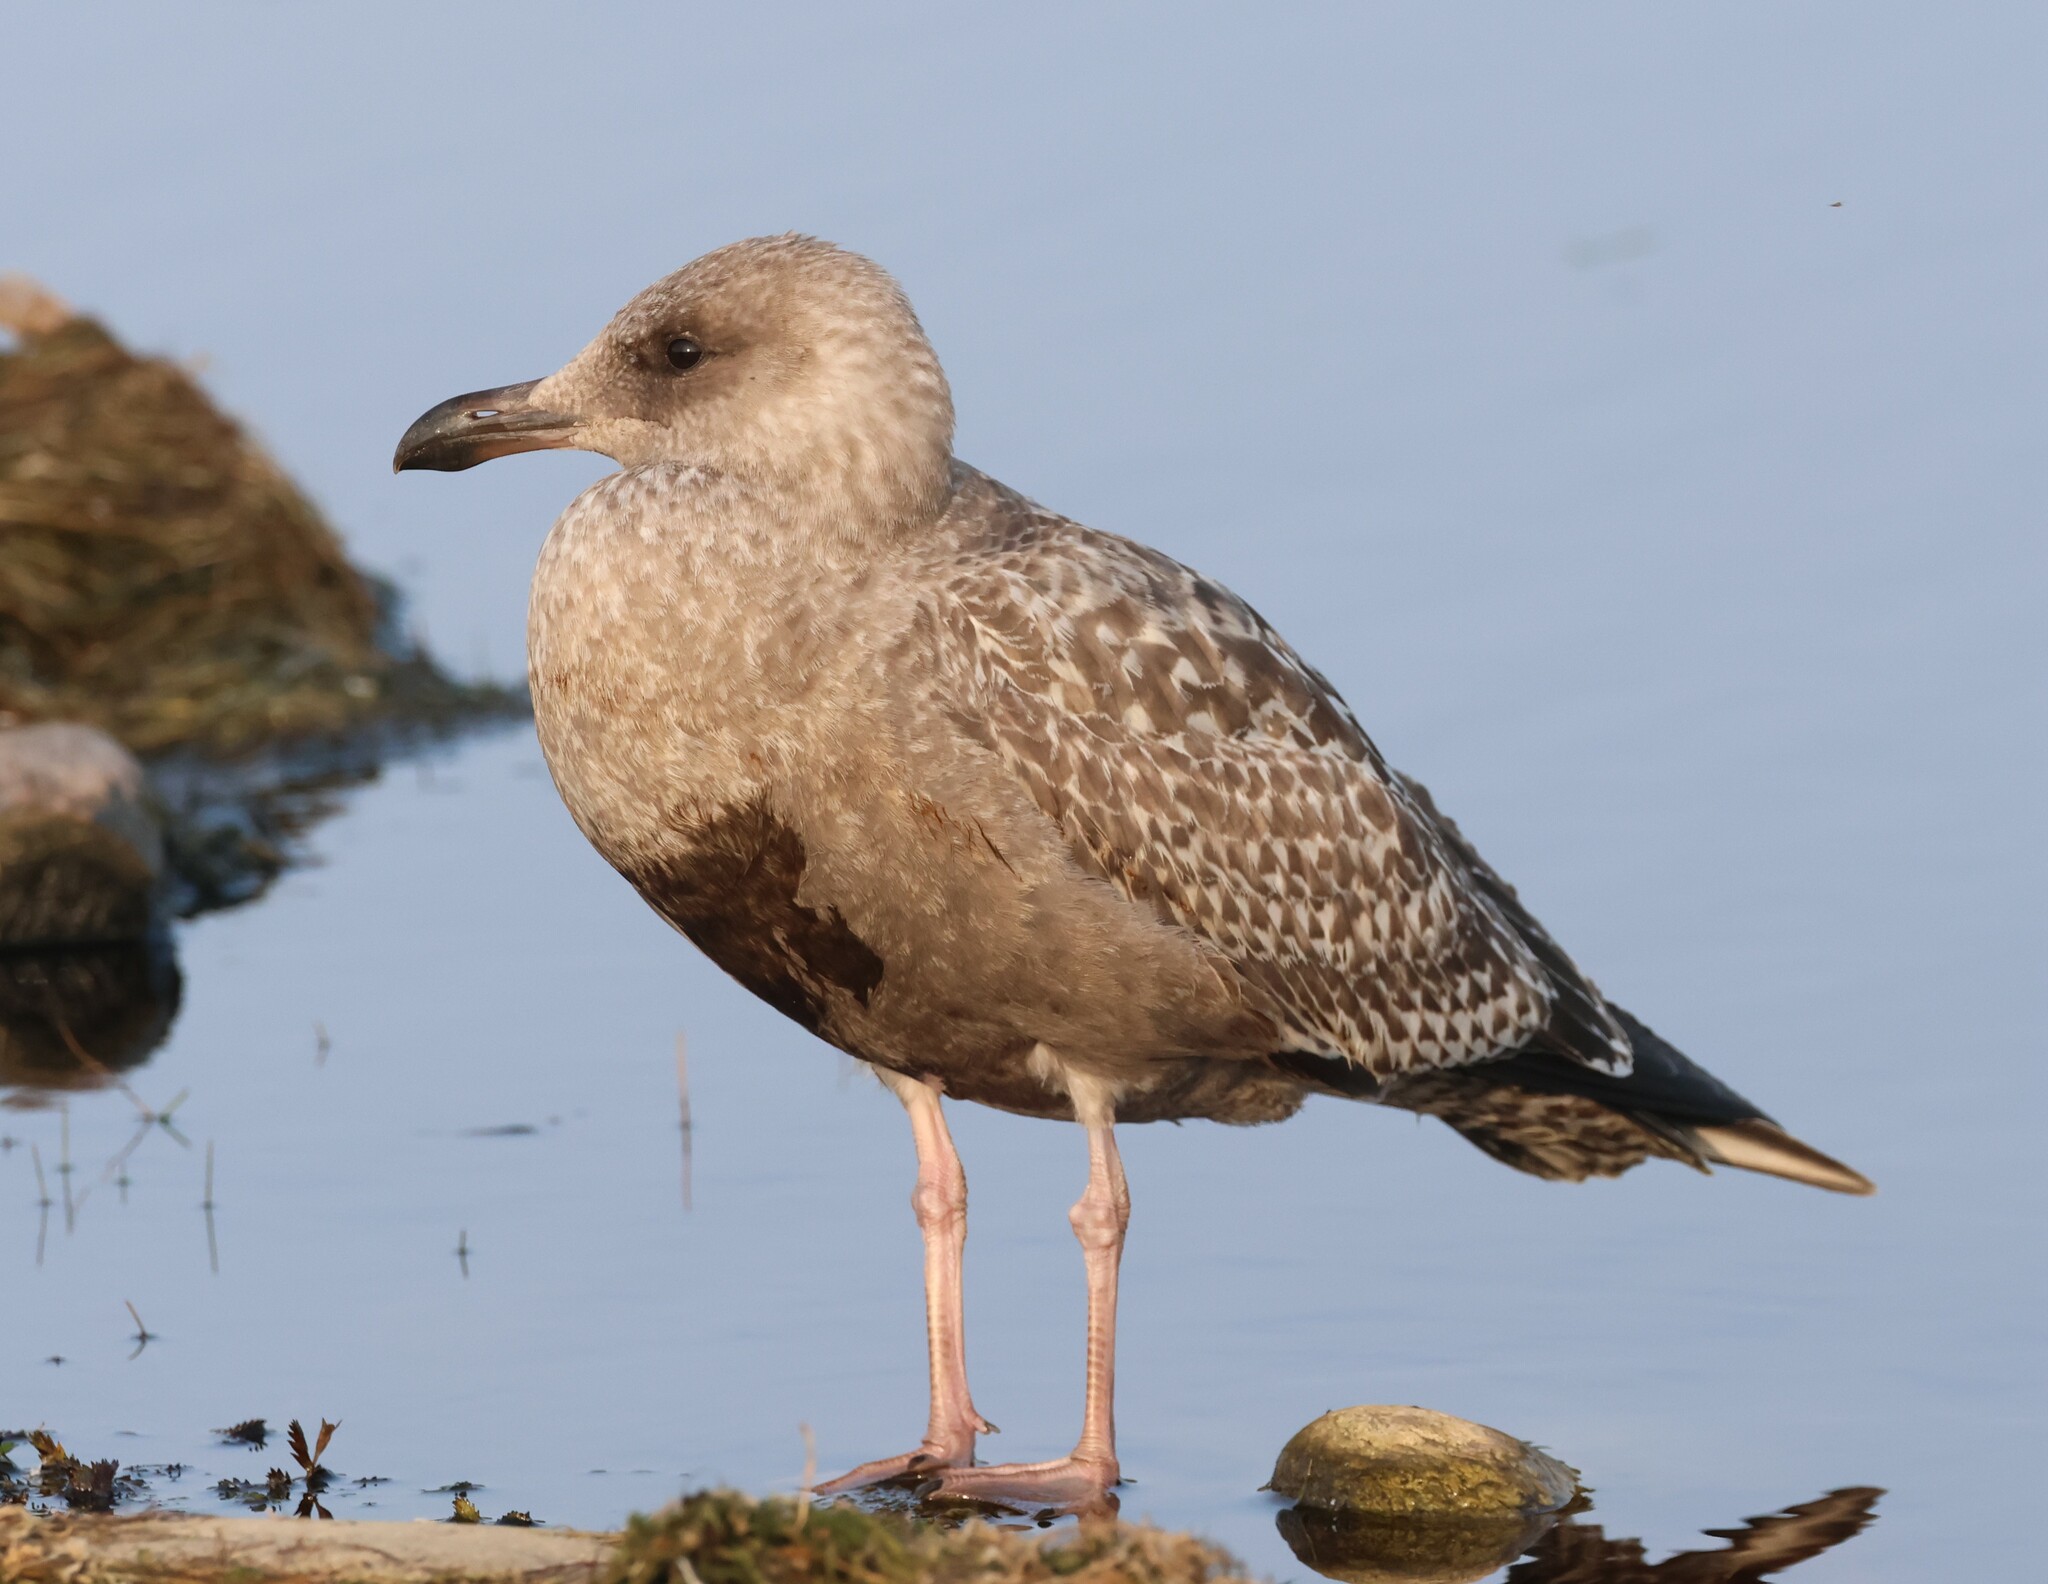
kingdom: Animalia
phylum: Chordata
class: Aves
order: Charadriiformes
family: Laridae
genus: Larus
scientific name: Larus argentatus
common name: Herring gull
